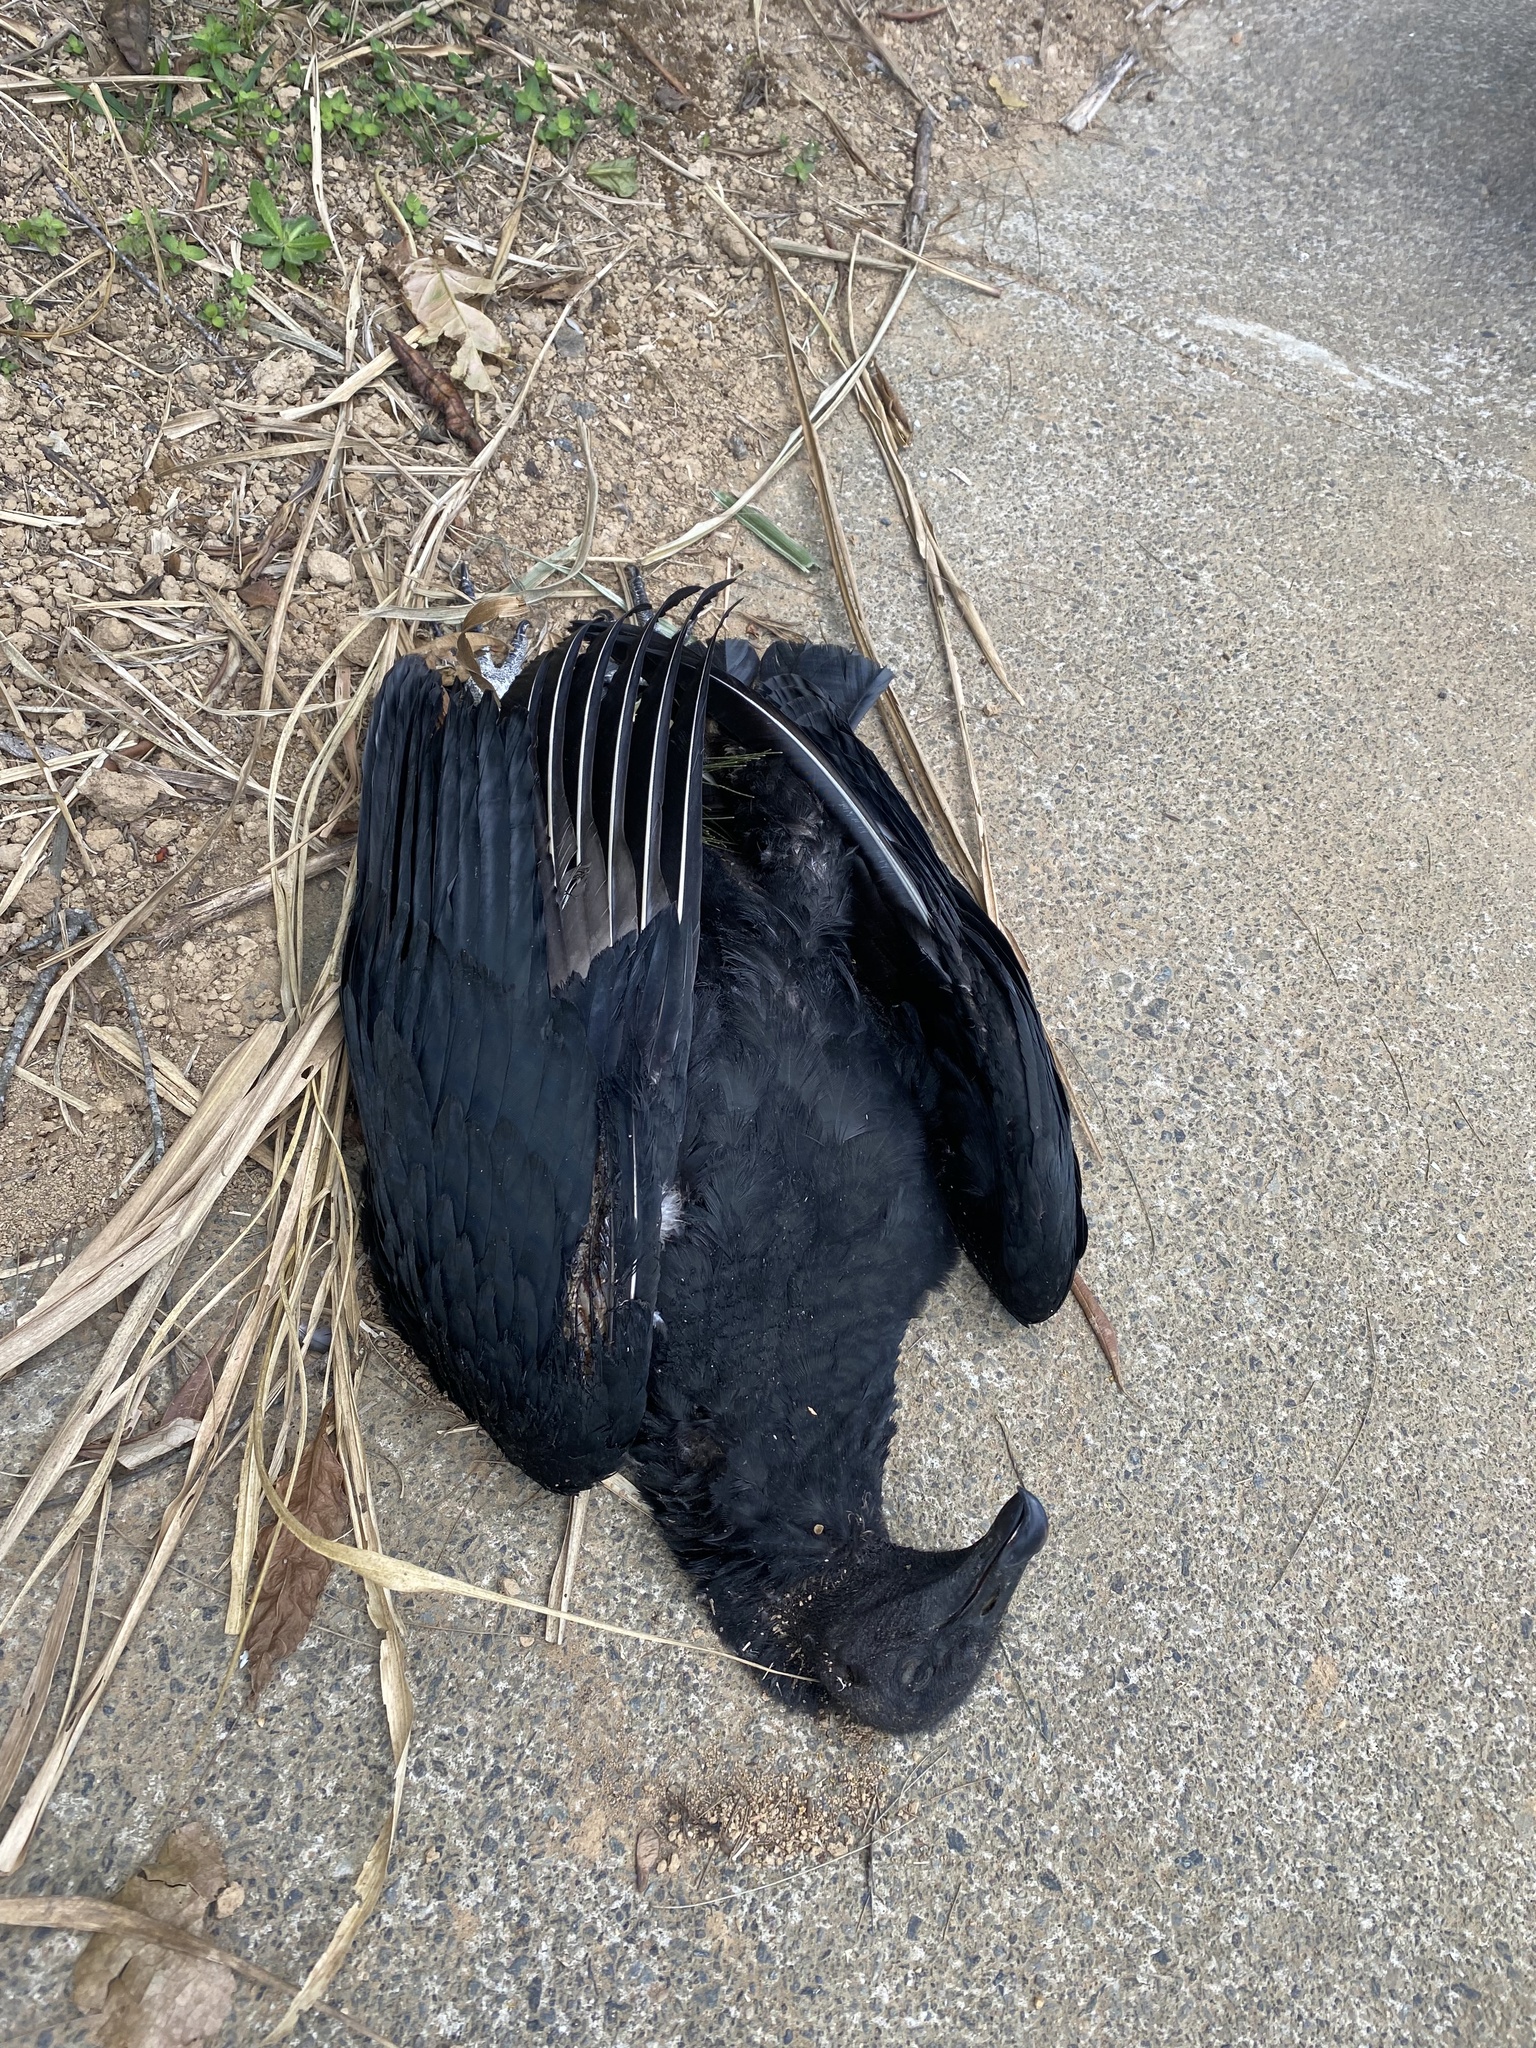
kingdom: Animalia
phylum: Chordata
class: Aves
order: Accipitriformes
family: Cathartidae
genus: Coragyps
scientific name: Coragyps atratus
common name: Black vulture
